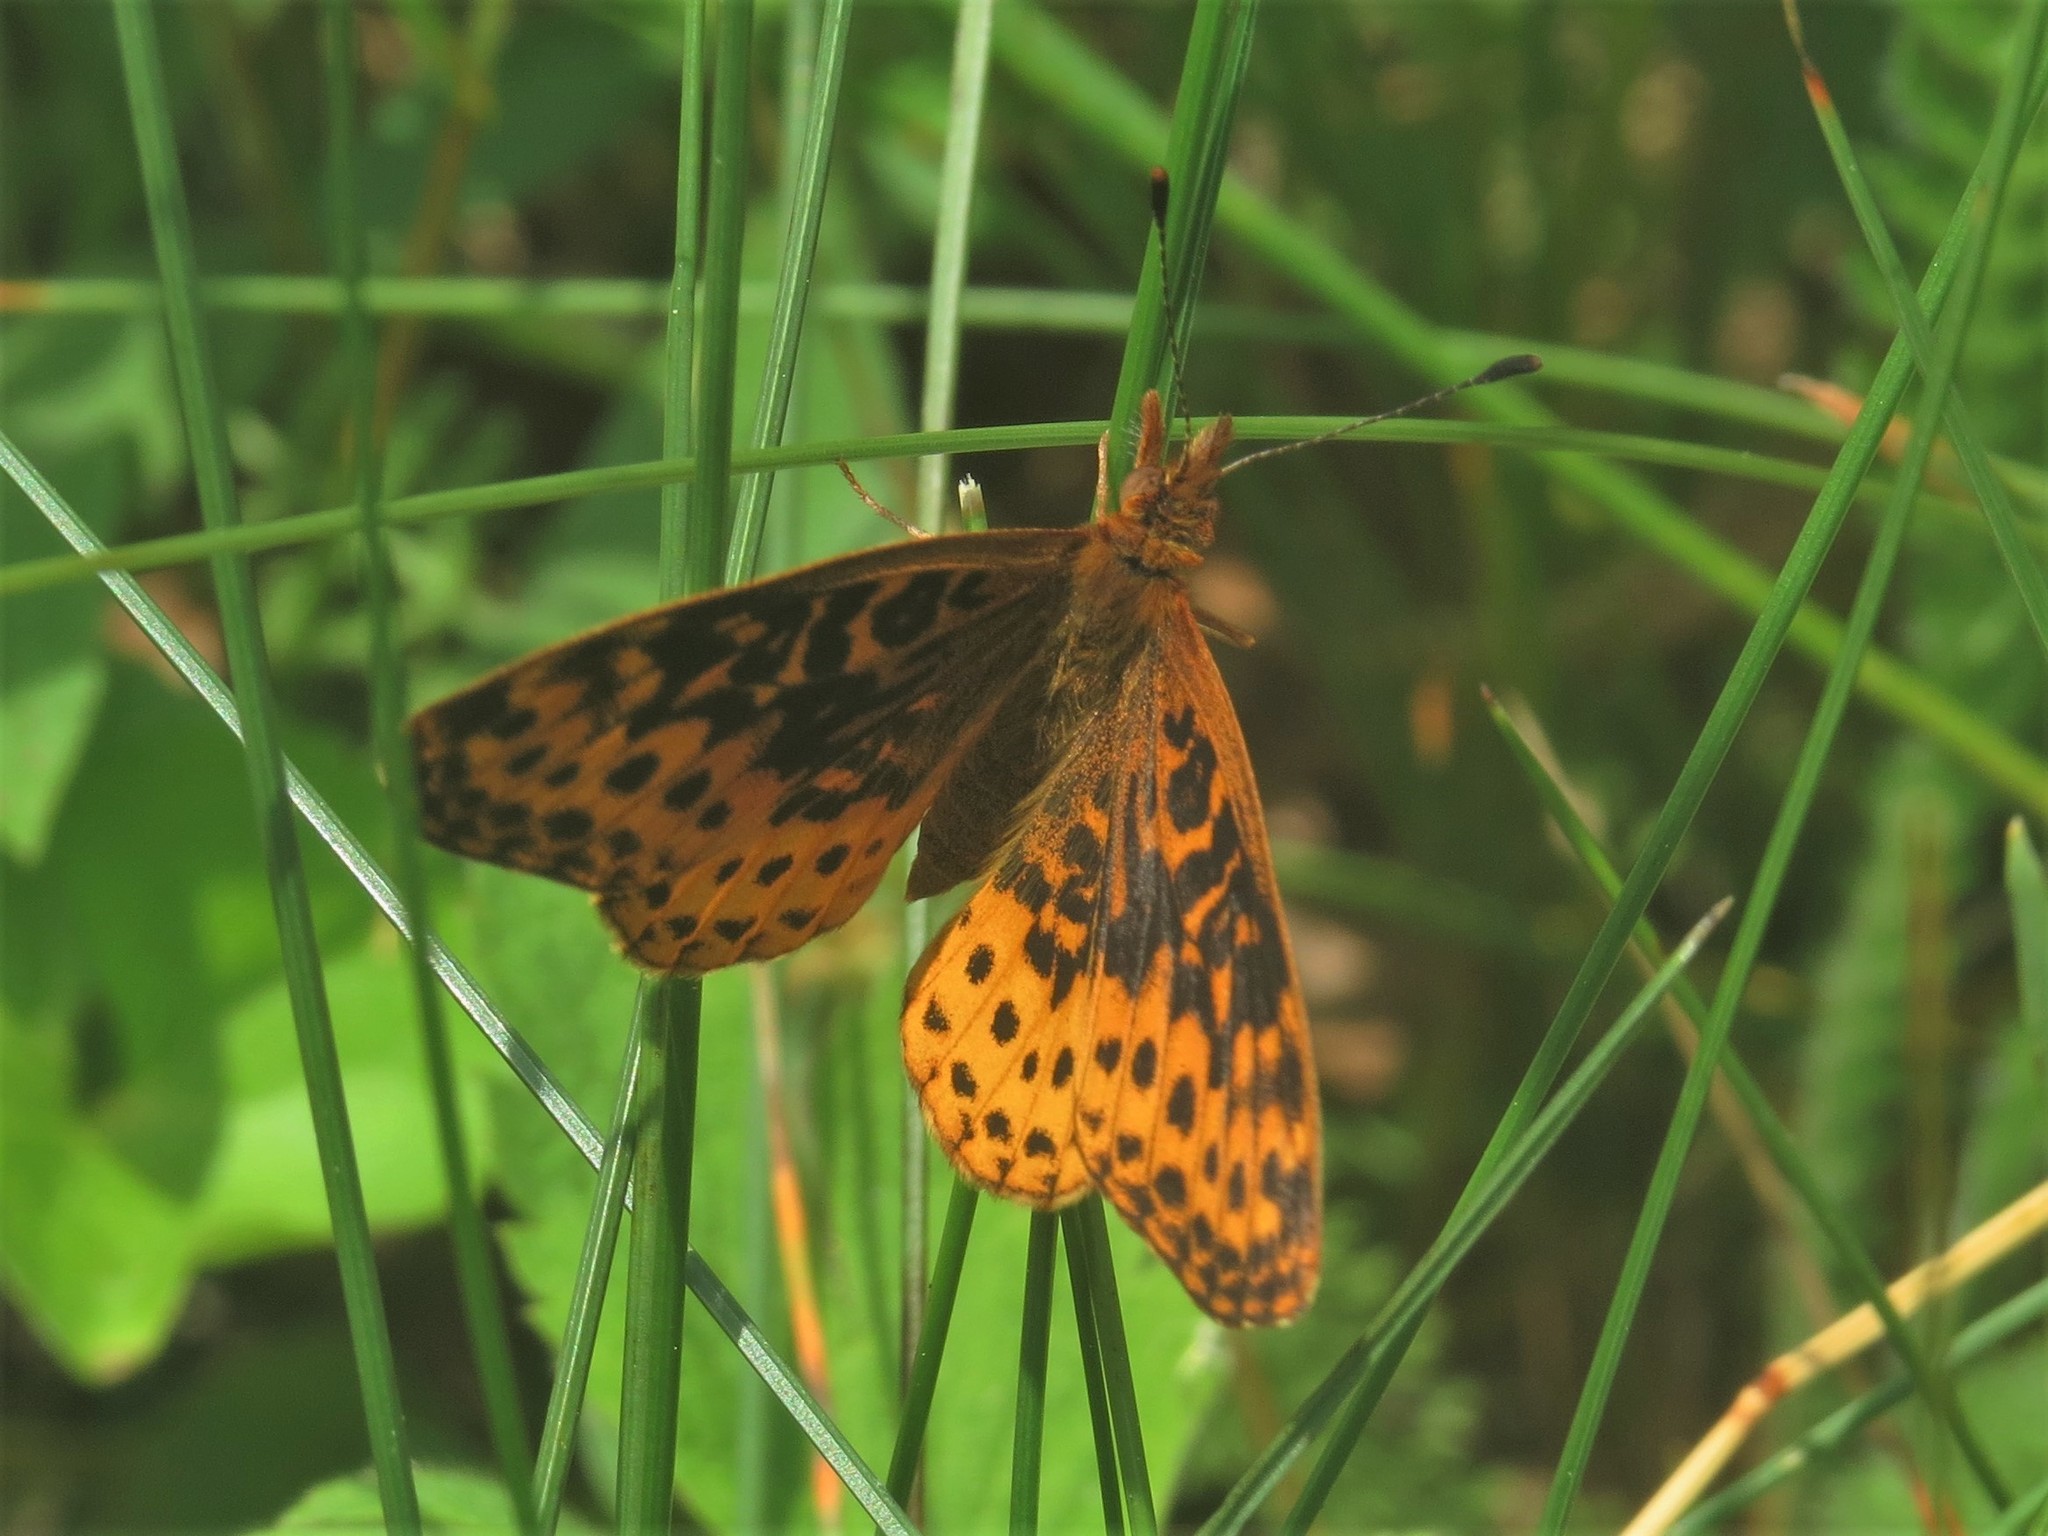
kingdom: Animalia
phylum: Arthropoda
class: Insecta
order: Lepidoptera
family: Nymphalidae
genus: Clossiana
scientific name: Clossiana toddi
